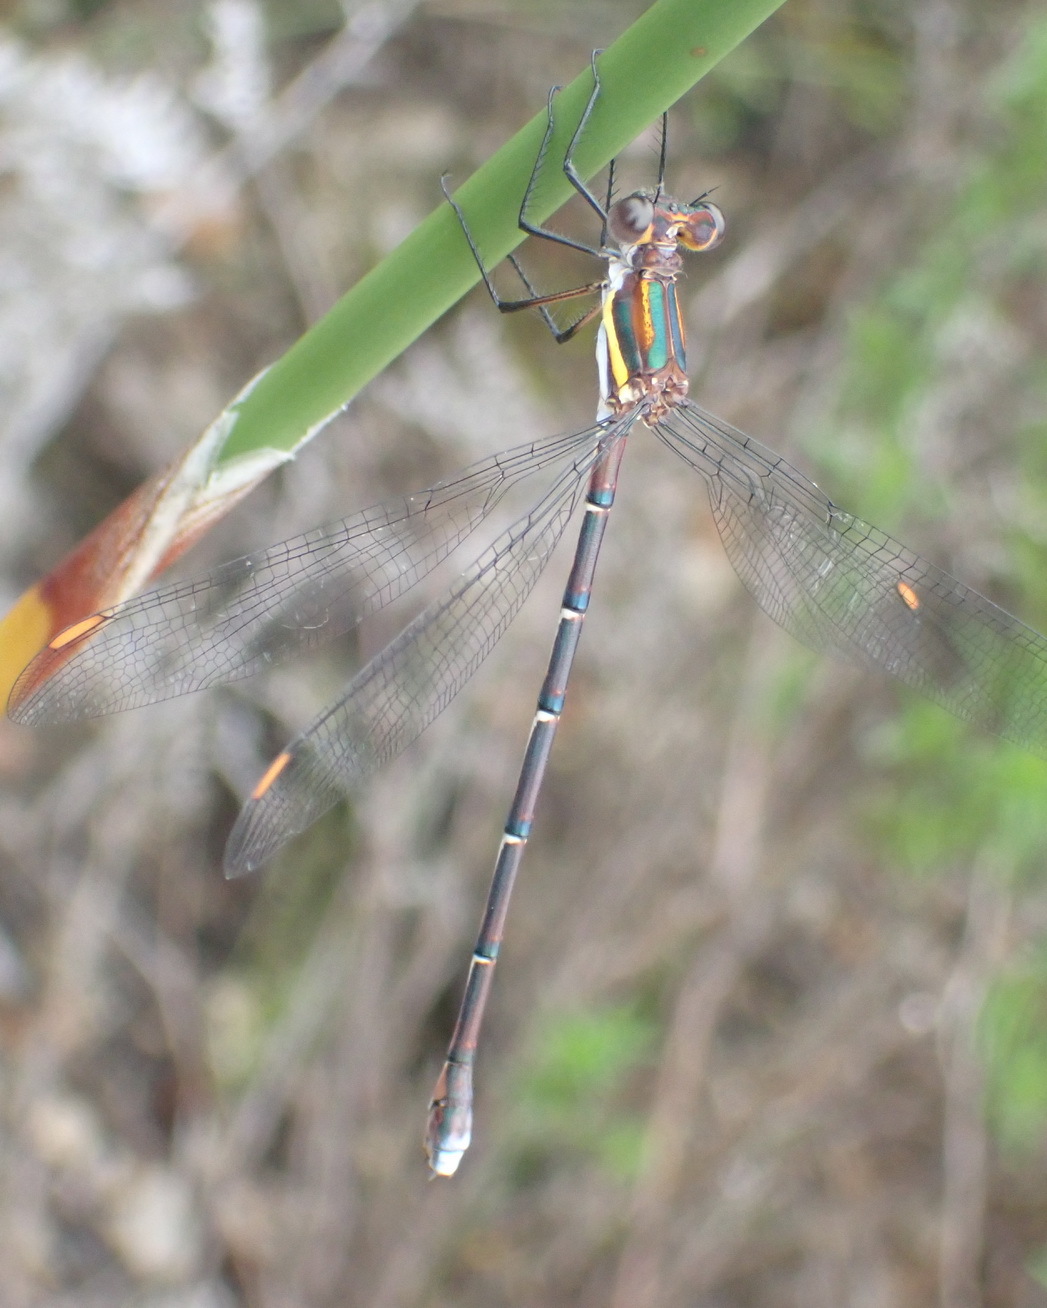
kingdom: Animalia
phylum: Arthropoda
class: Insecta
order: Odonata
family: Synlestidae
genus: Chlorolestes
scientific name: Chlorolestes conspicuus
